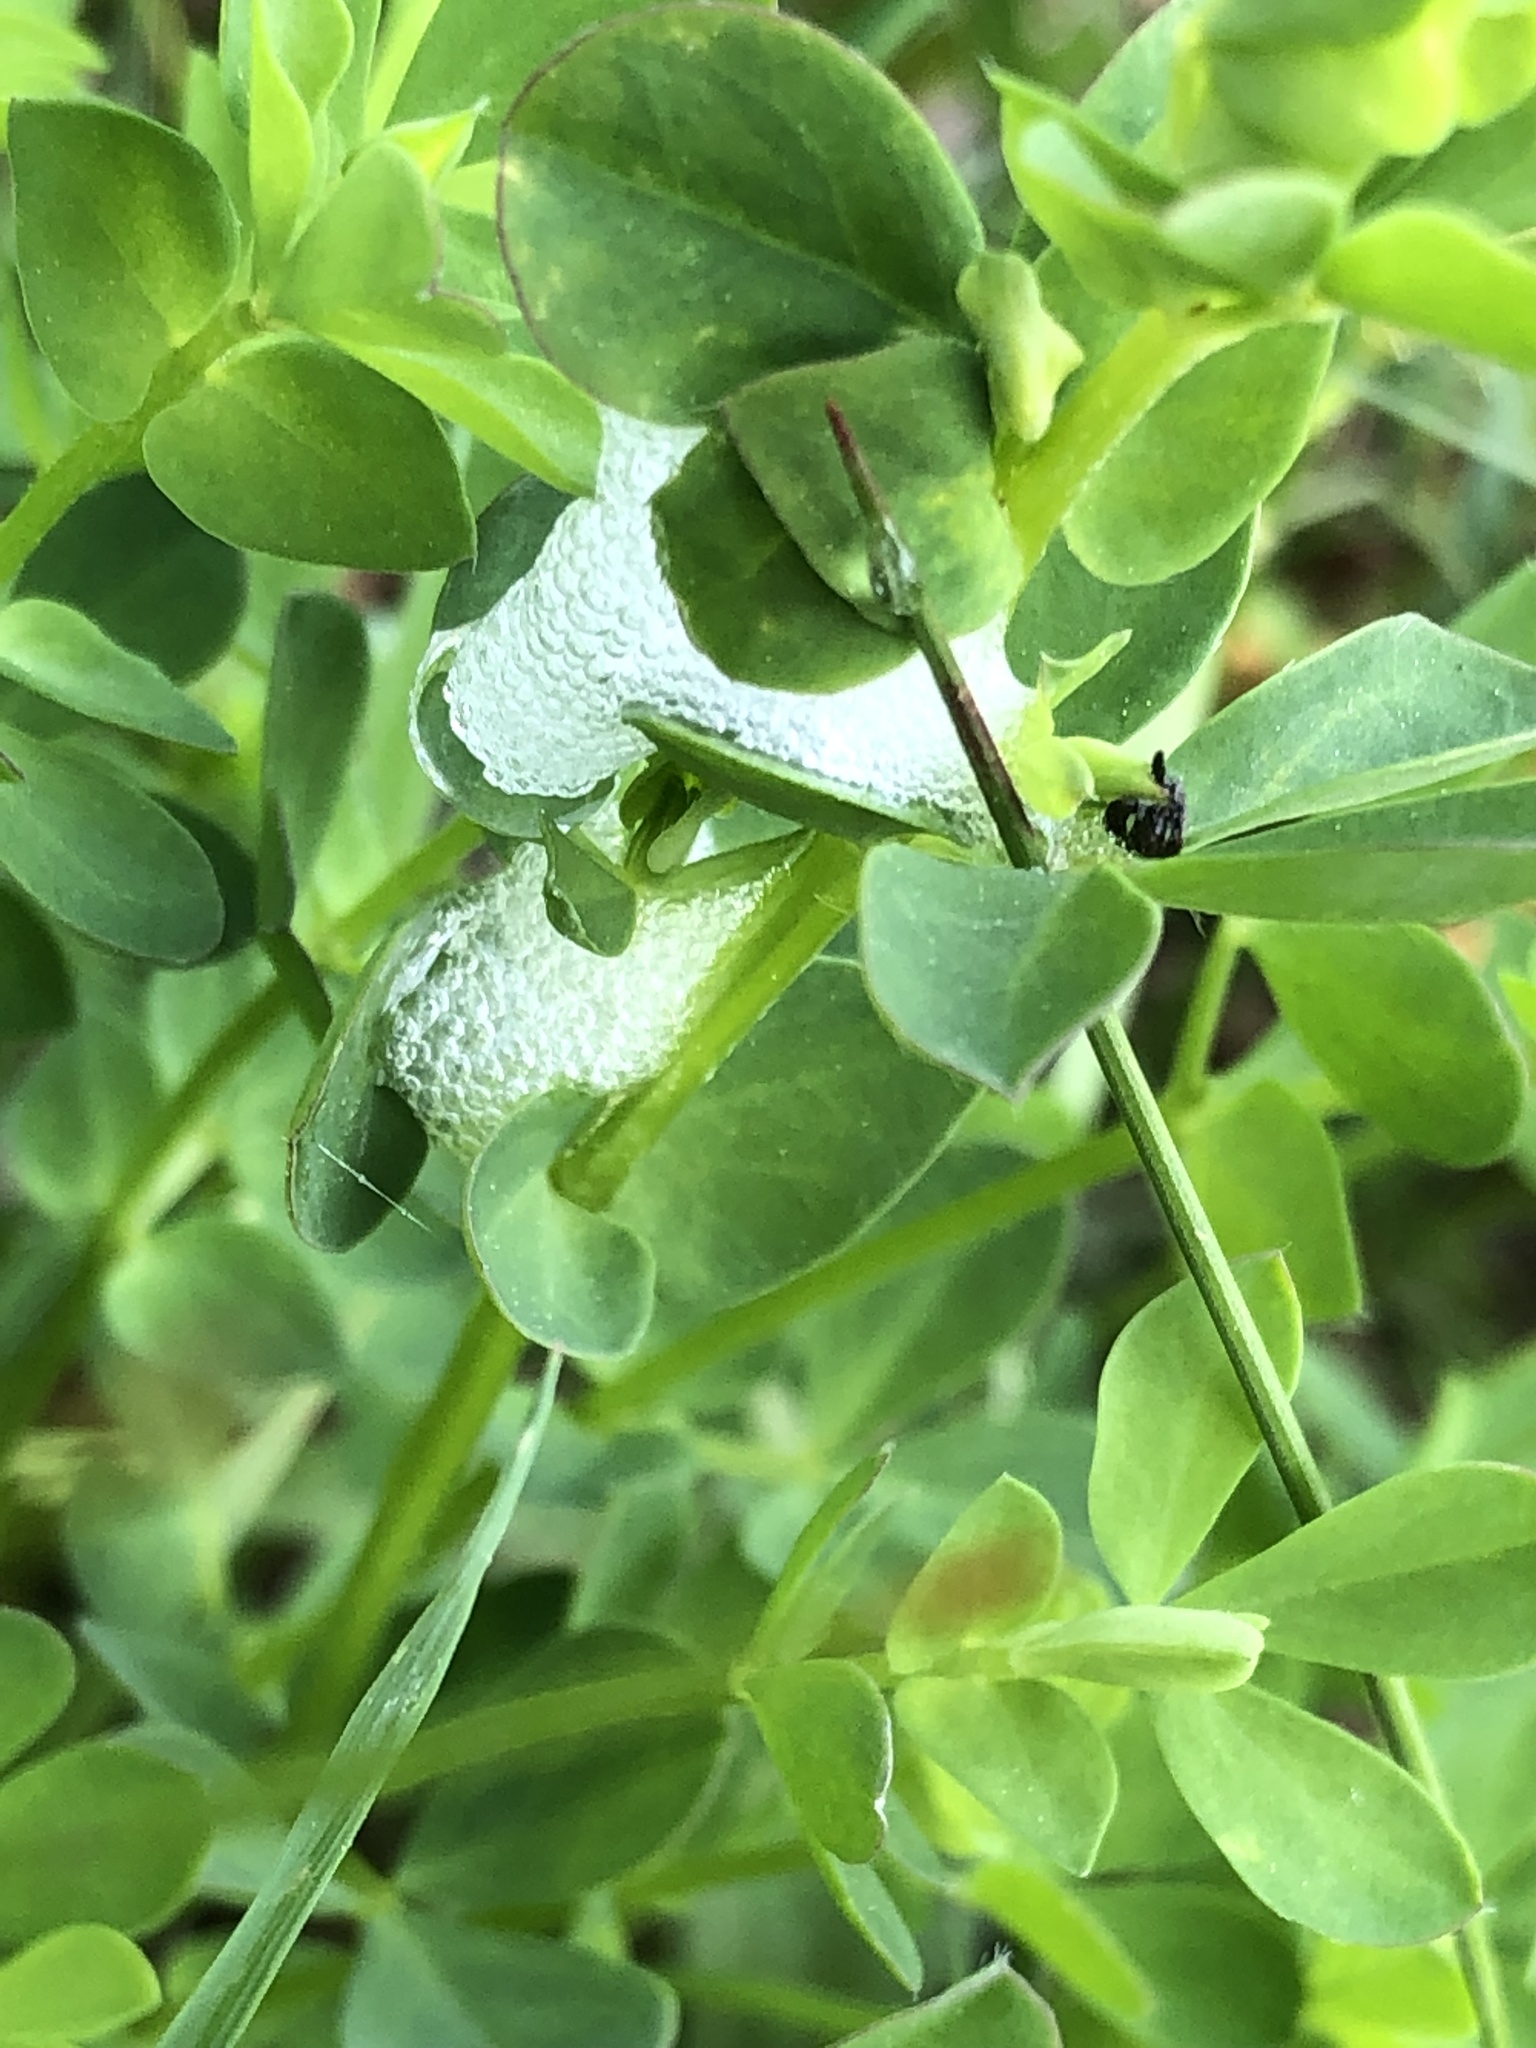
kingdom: Animalia
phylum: Arthropoda
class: Insecta
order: Hemiptera
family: Aphrophoridae
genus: Philaenus
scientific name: Philaenus spumarius
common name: Meadow spittlebug
